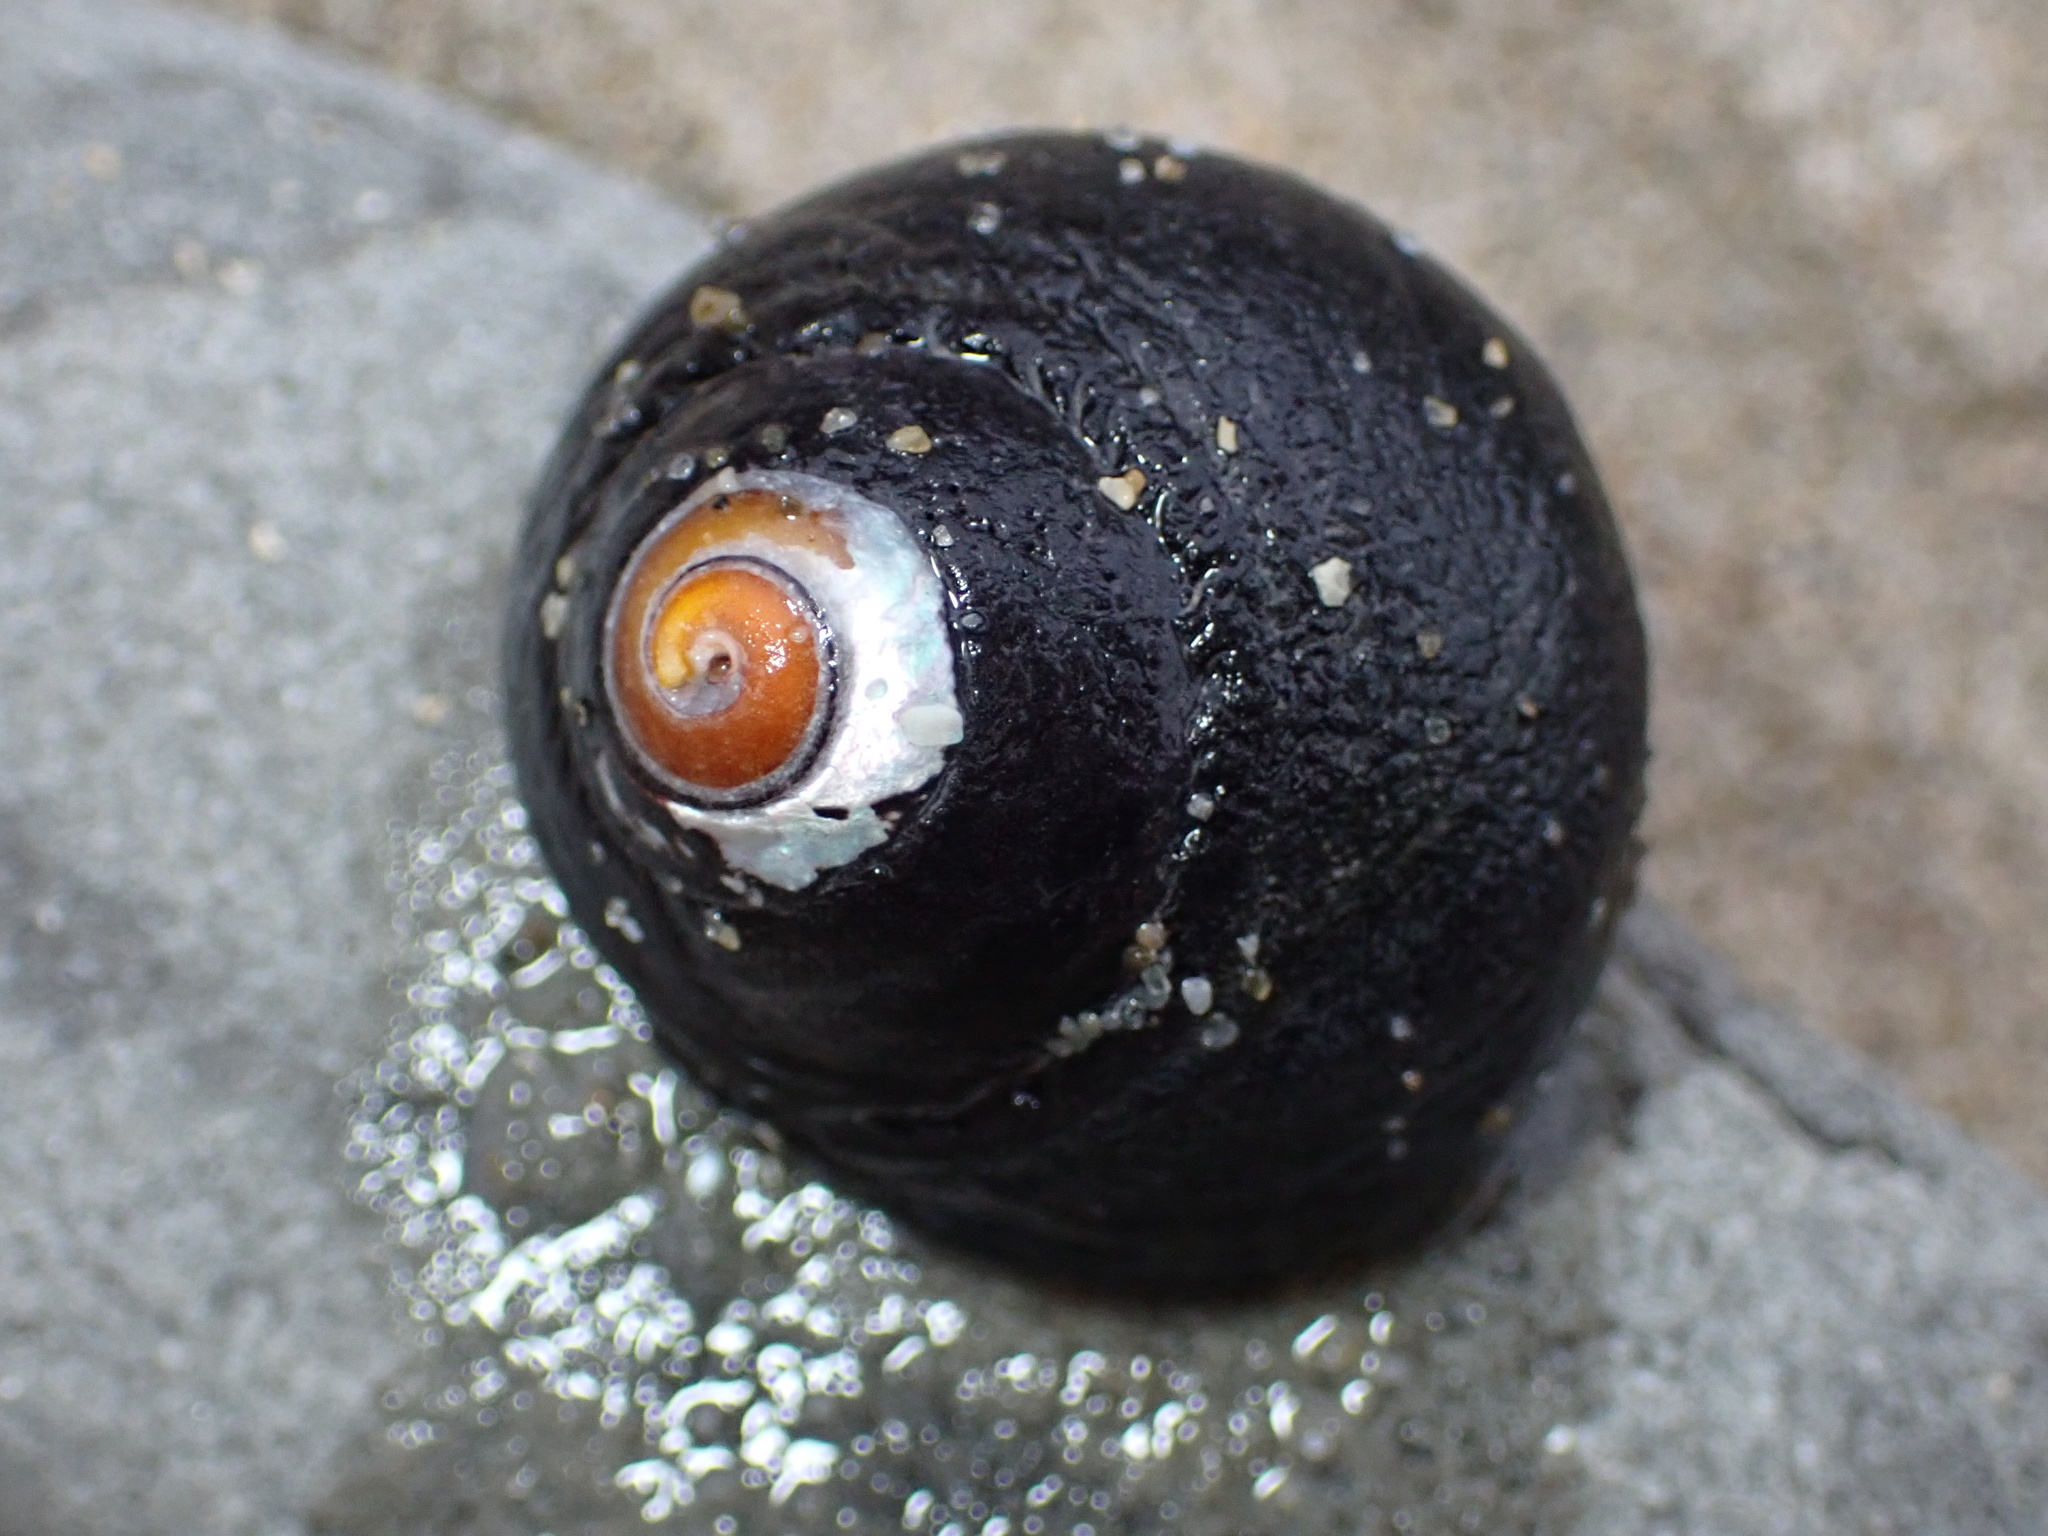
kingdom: Animalia
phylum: Mollusca
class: Gastropoda
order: Trochida
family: Tegulidae
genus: Tegula
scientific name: Tegula funebralis
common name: Black tegula
